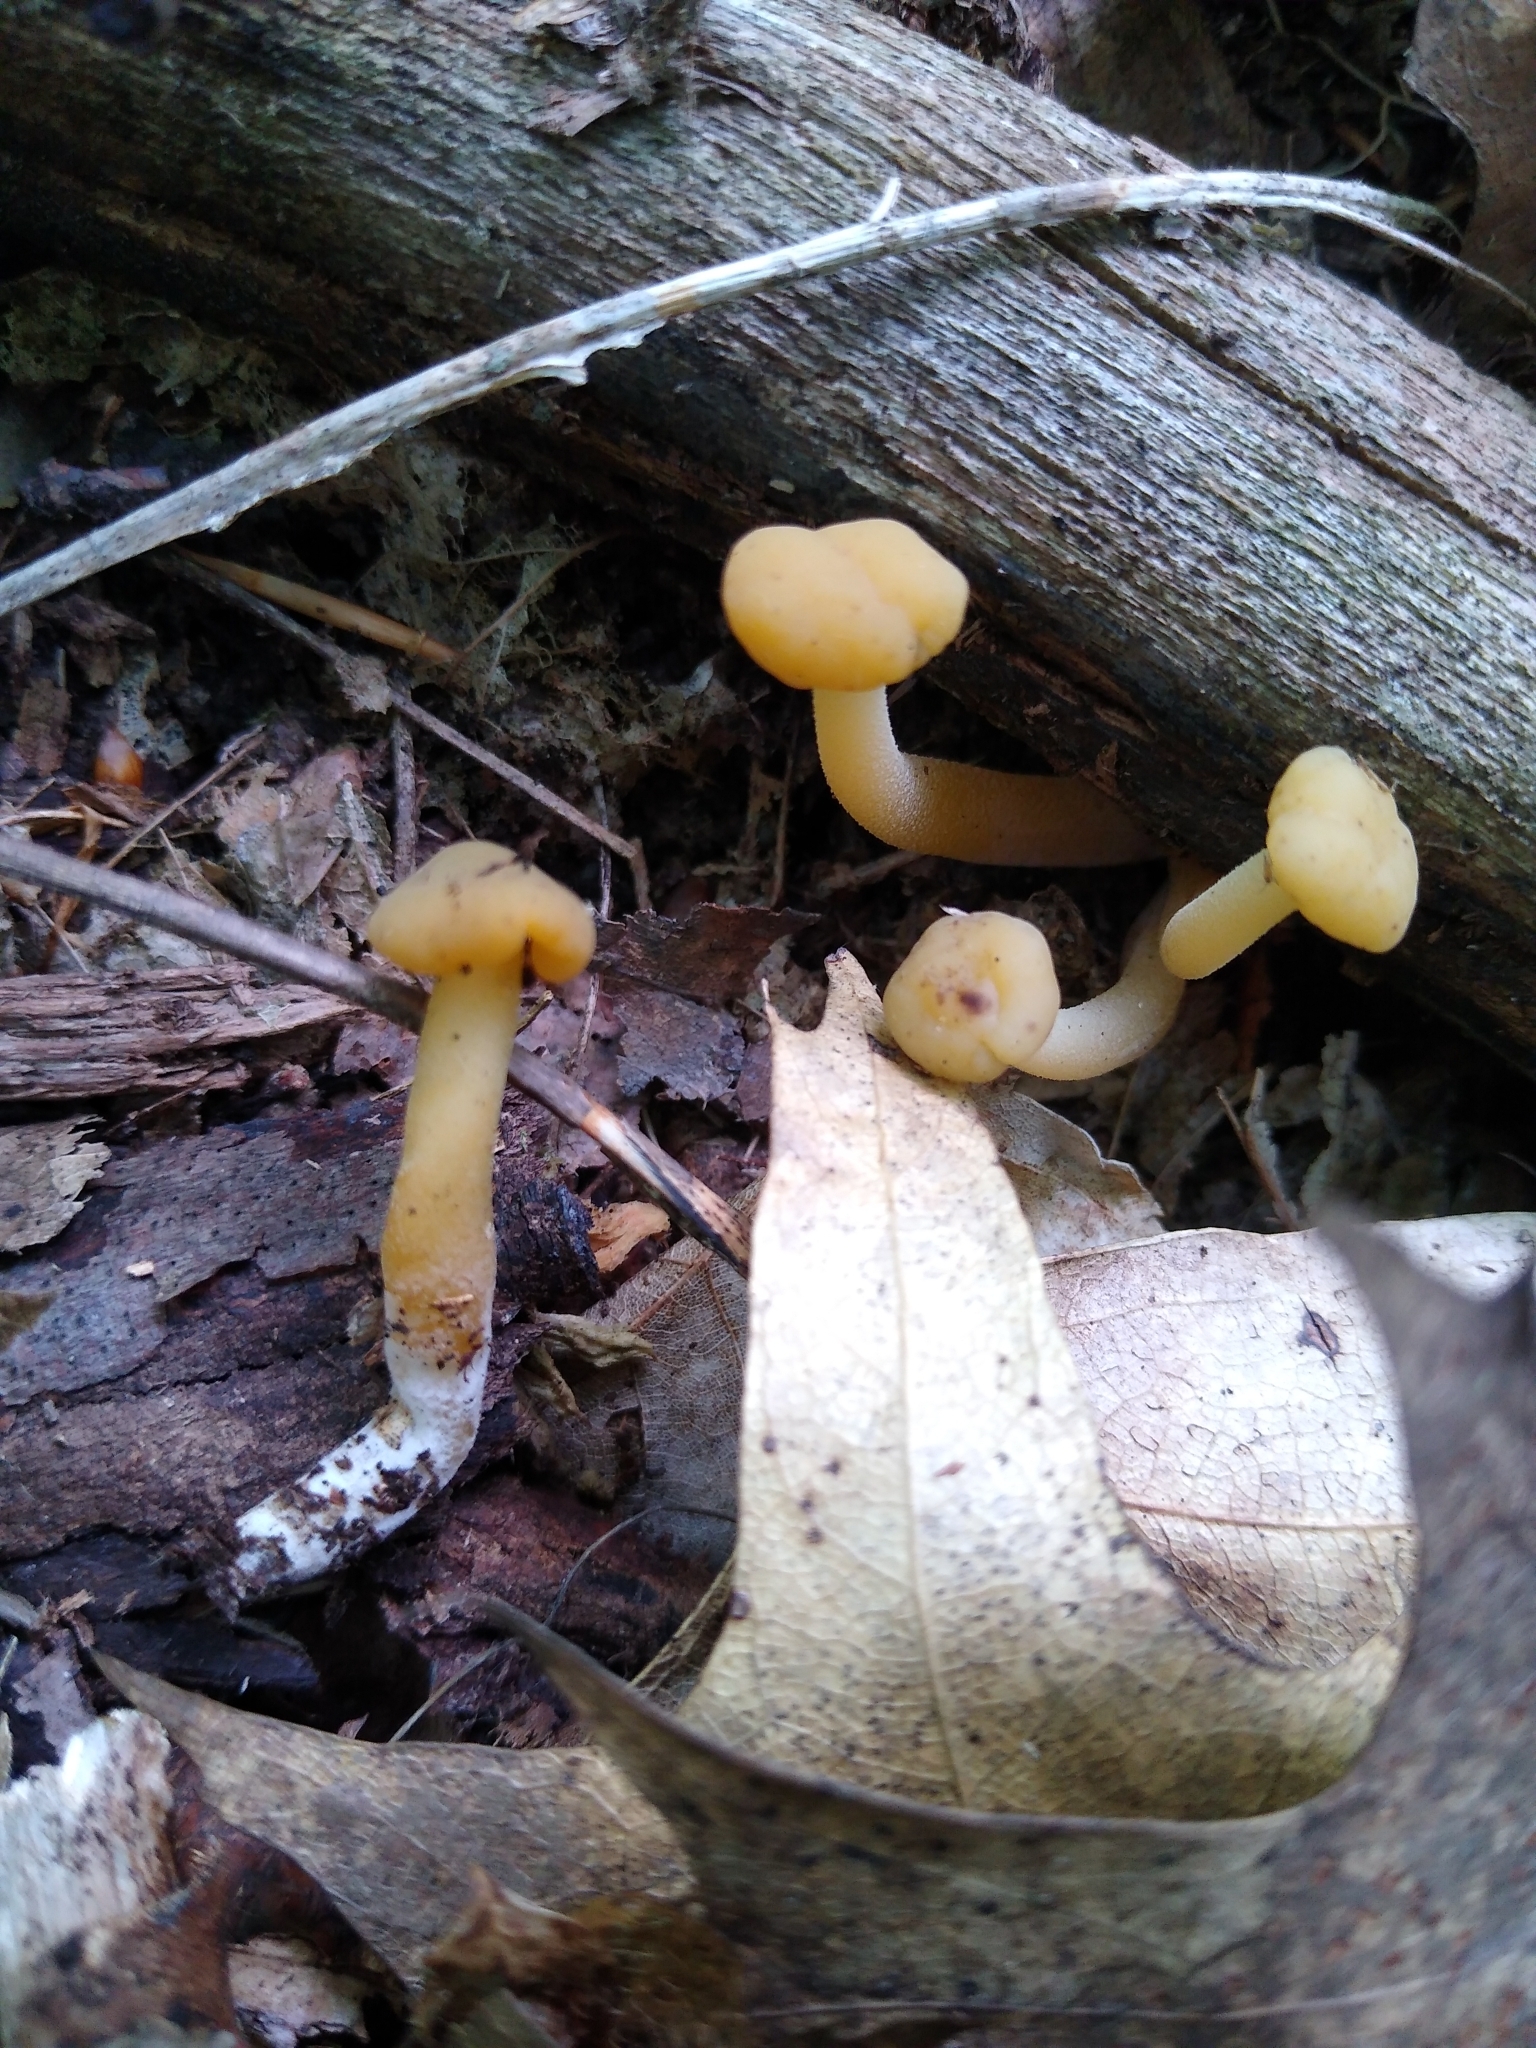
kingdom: Fungi
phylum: Ascomycota
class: Leotiomycetes
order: Leotiales
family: Leotiaceae
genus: Leotia
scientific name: Leotia lubrica
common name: Jellybaby
